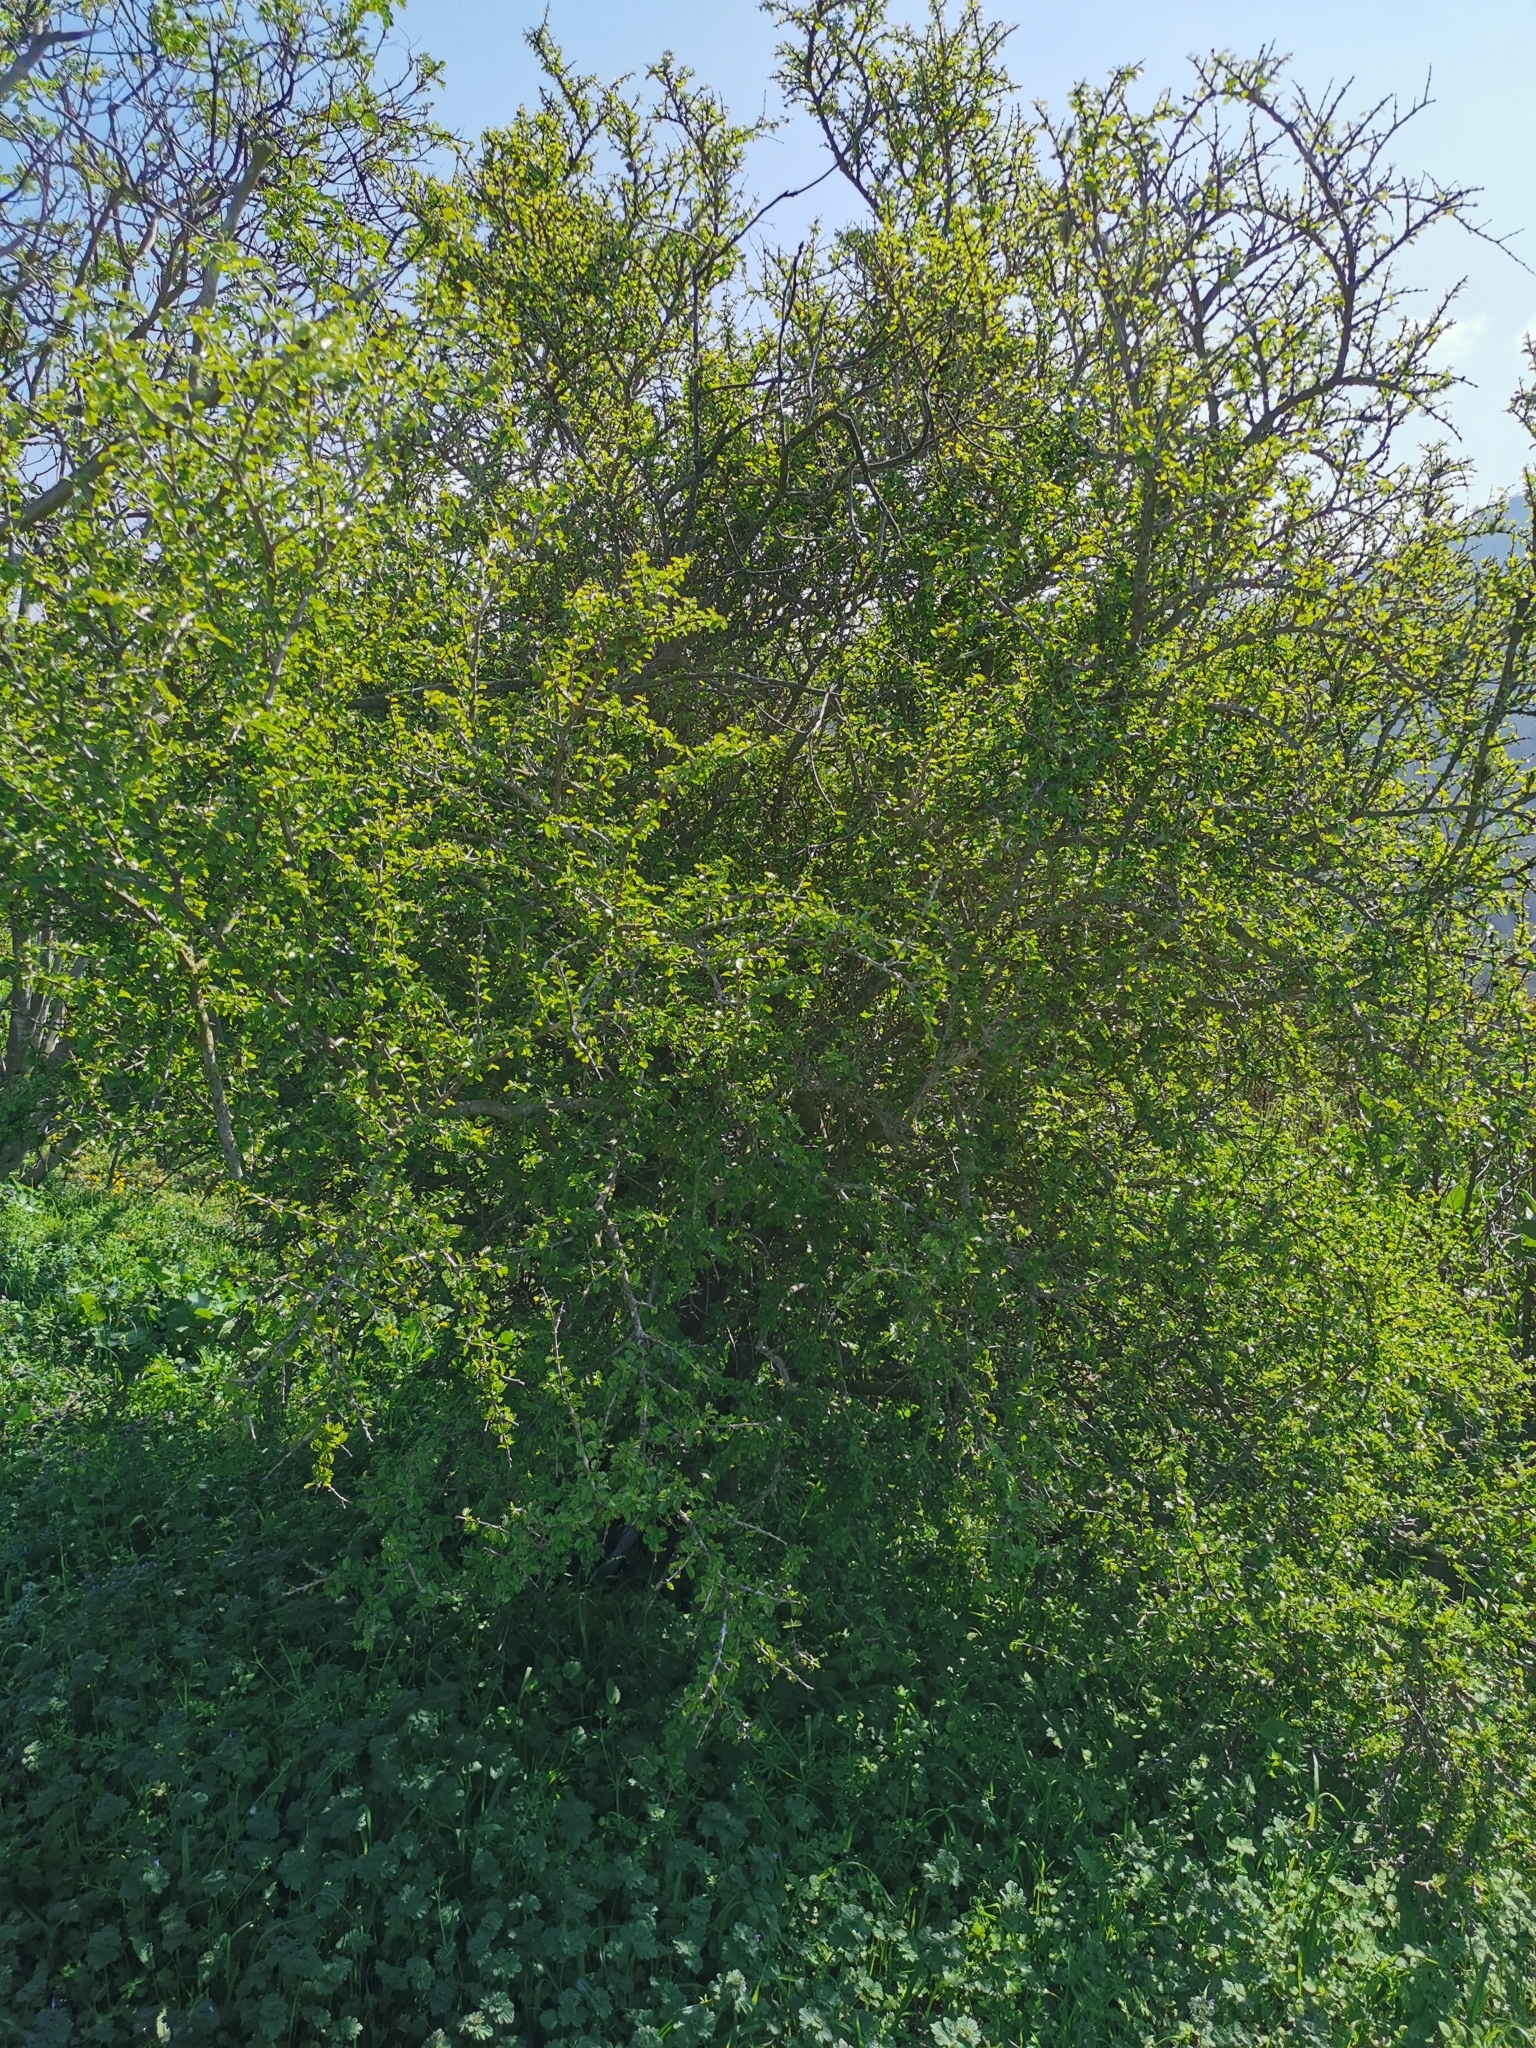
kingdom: Plantae
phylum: Tracheophyta
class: Magnoliopsida
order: Zygophyllales
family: Zygophyllaceae
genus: Porlieria
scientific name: Porlieria chilensis
